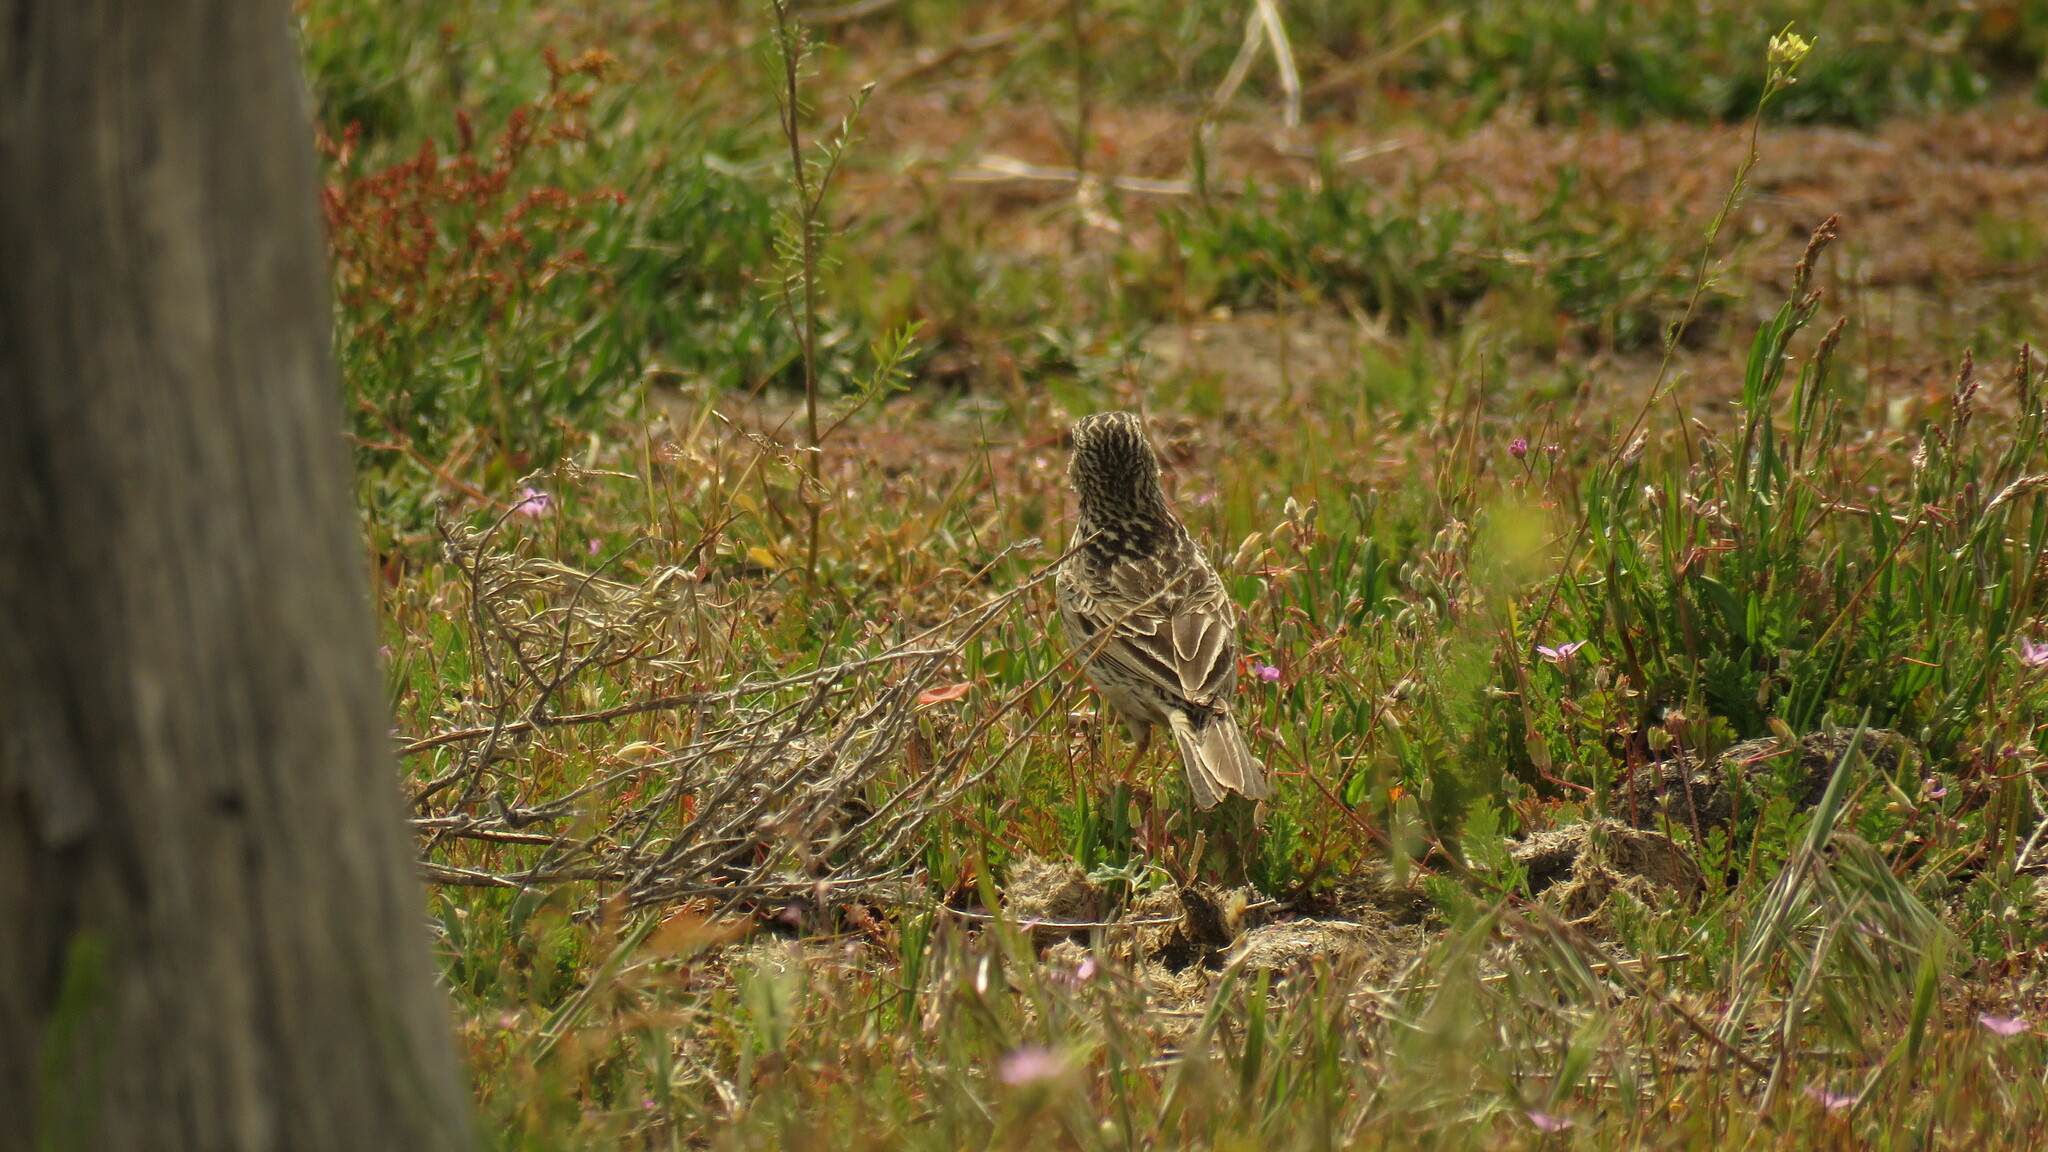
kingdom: Animalia
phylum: Chordata
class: Aves
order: Passeriformes
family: Motacillidae
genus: Anthus
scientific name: Anthus hellmayri
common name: Hellmayr's pipit
